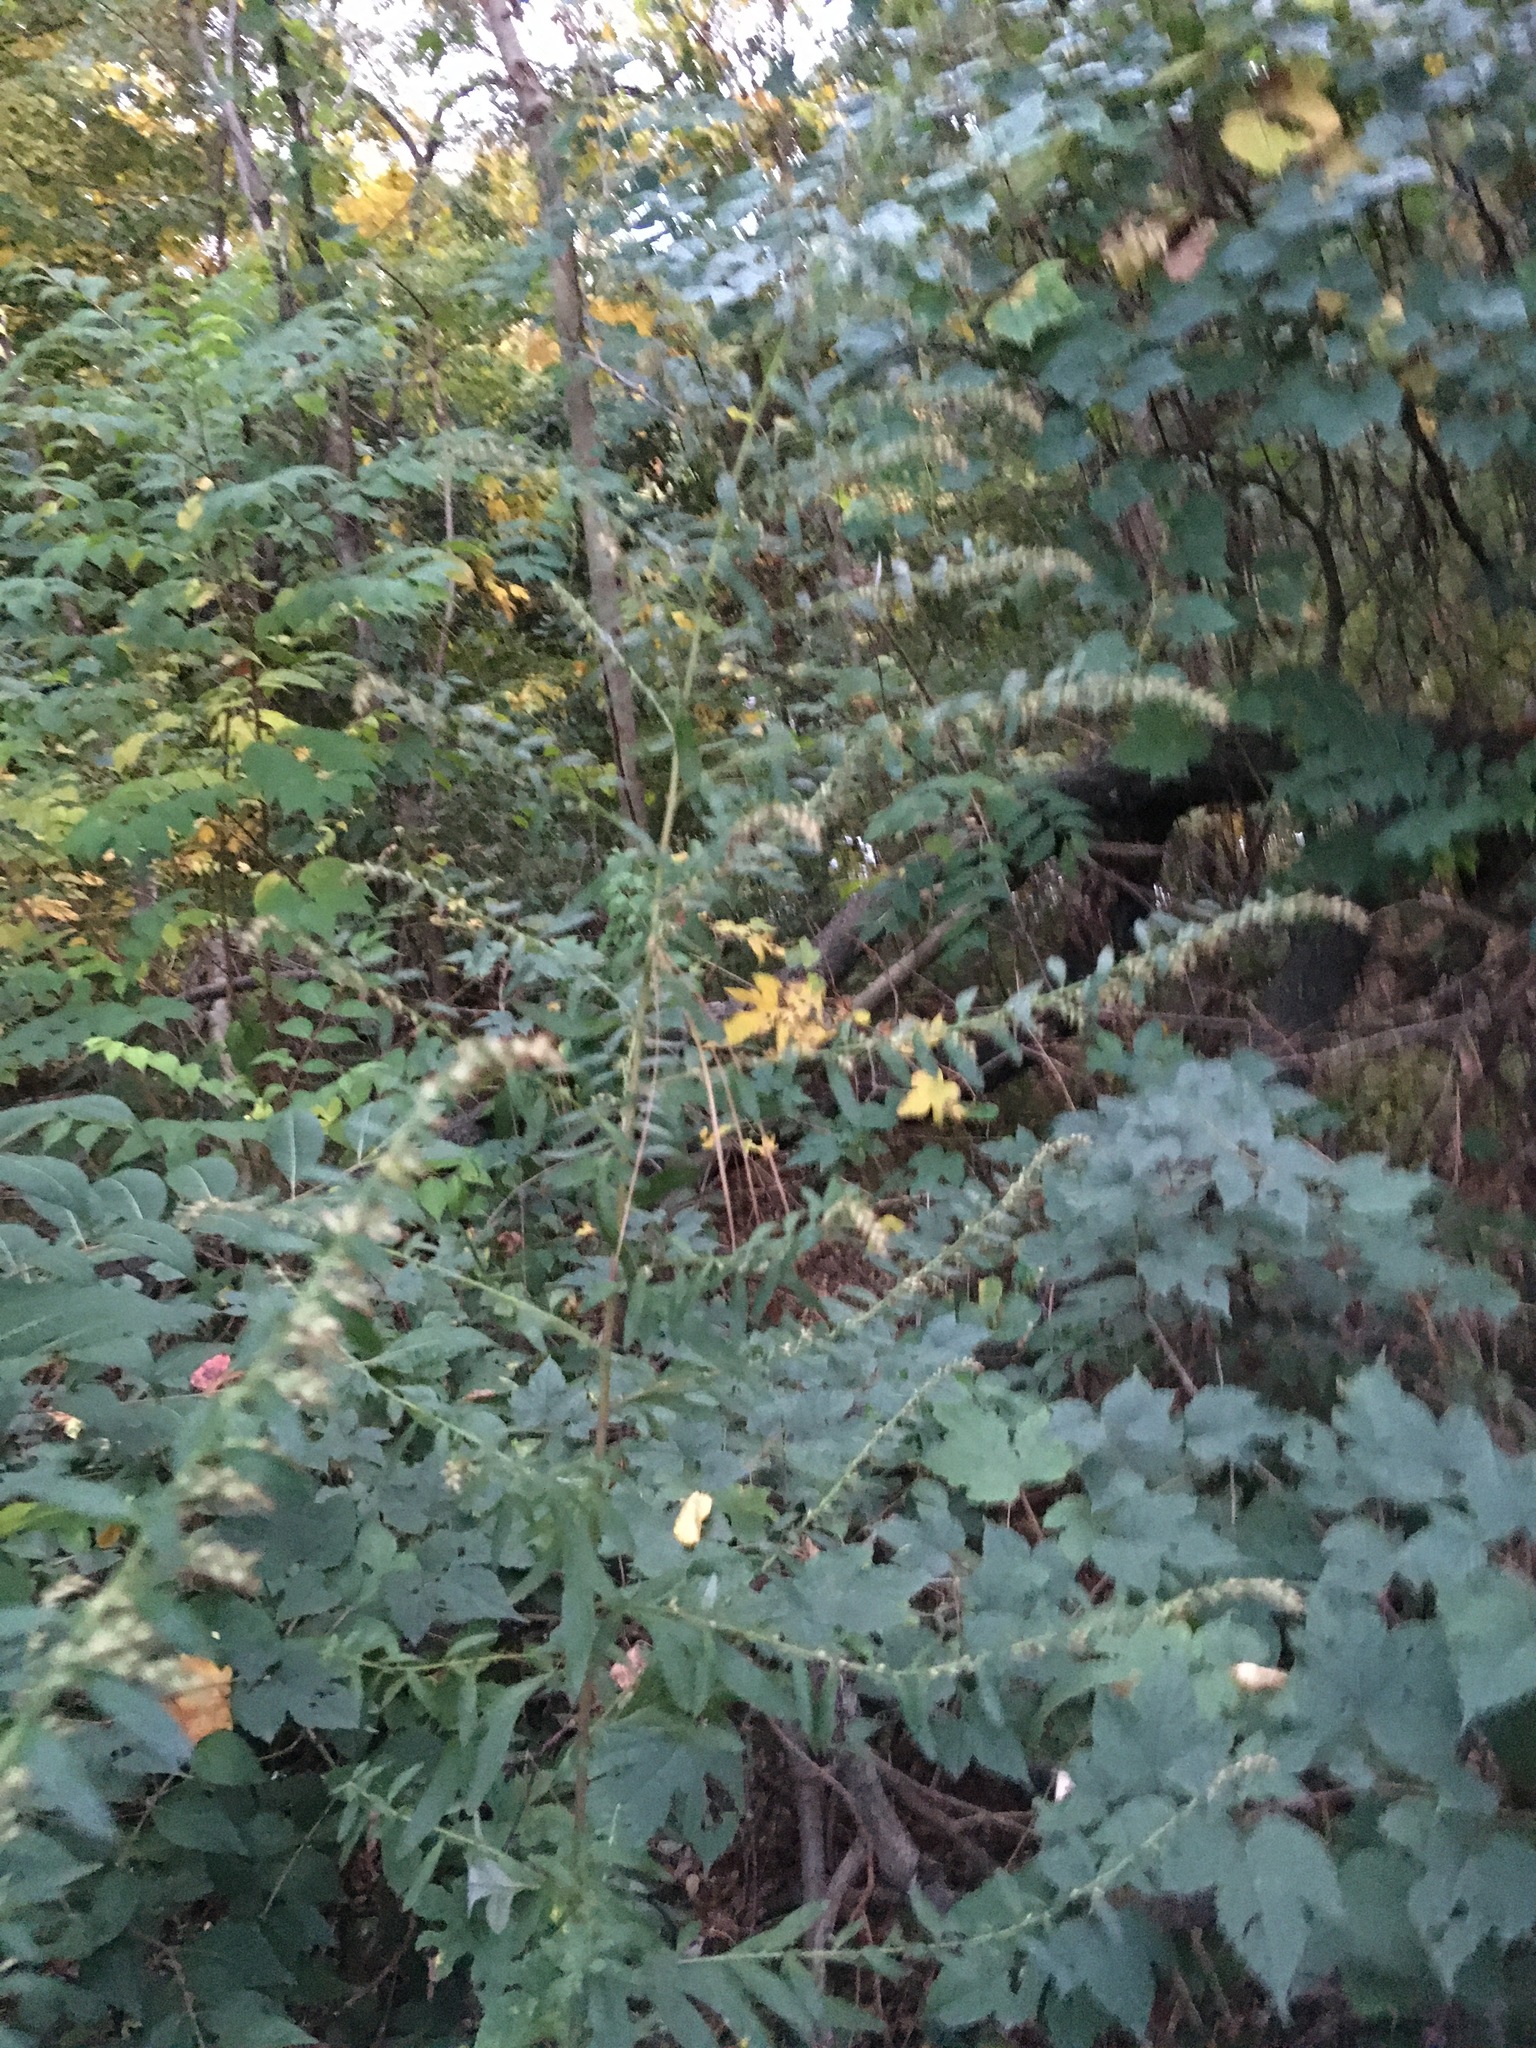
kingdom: Plantae
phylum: Tracheophyta
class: Magnoliopsida
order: Asterales
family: Asteraceae
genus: Artemisia
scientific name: Artemisia vulgaris
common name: Mugwort
